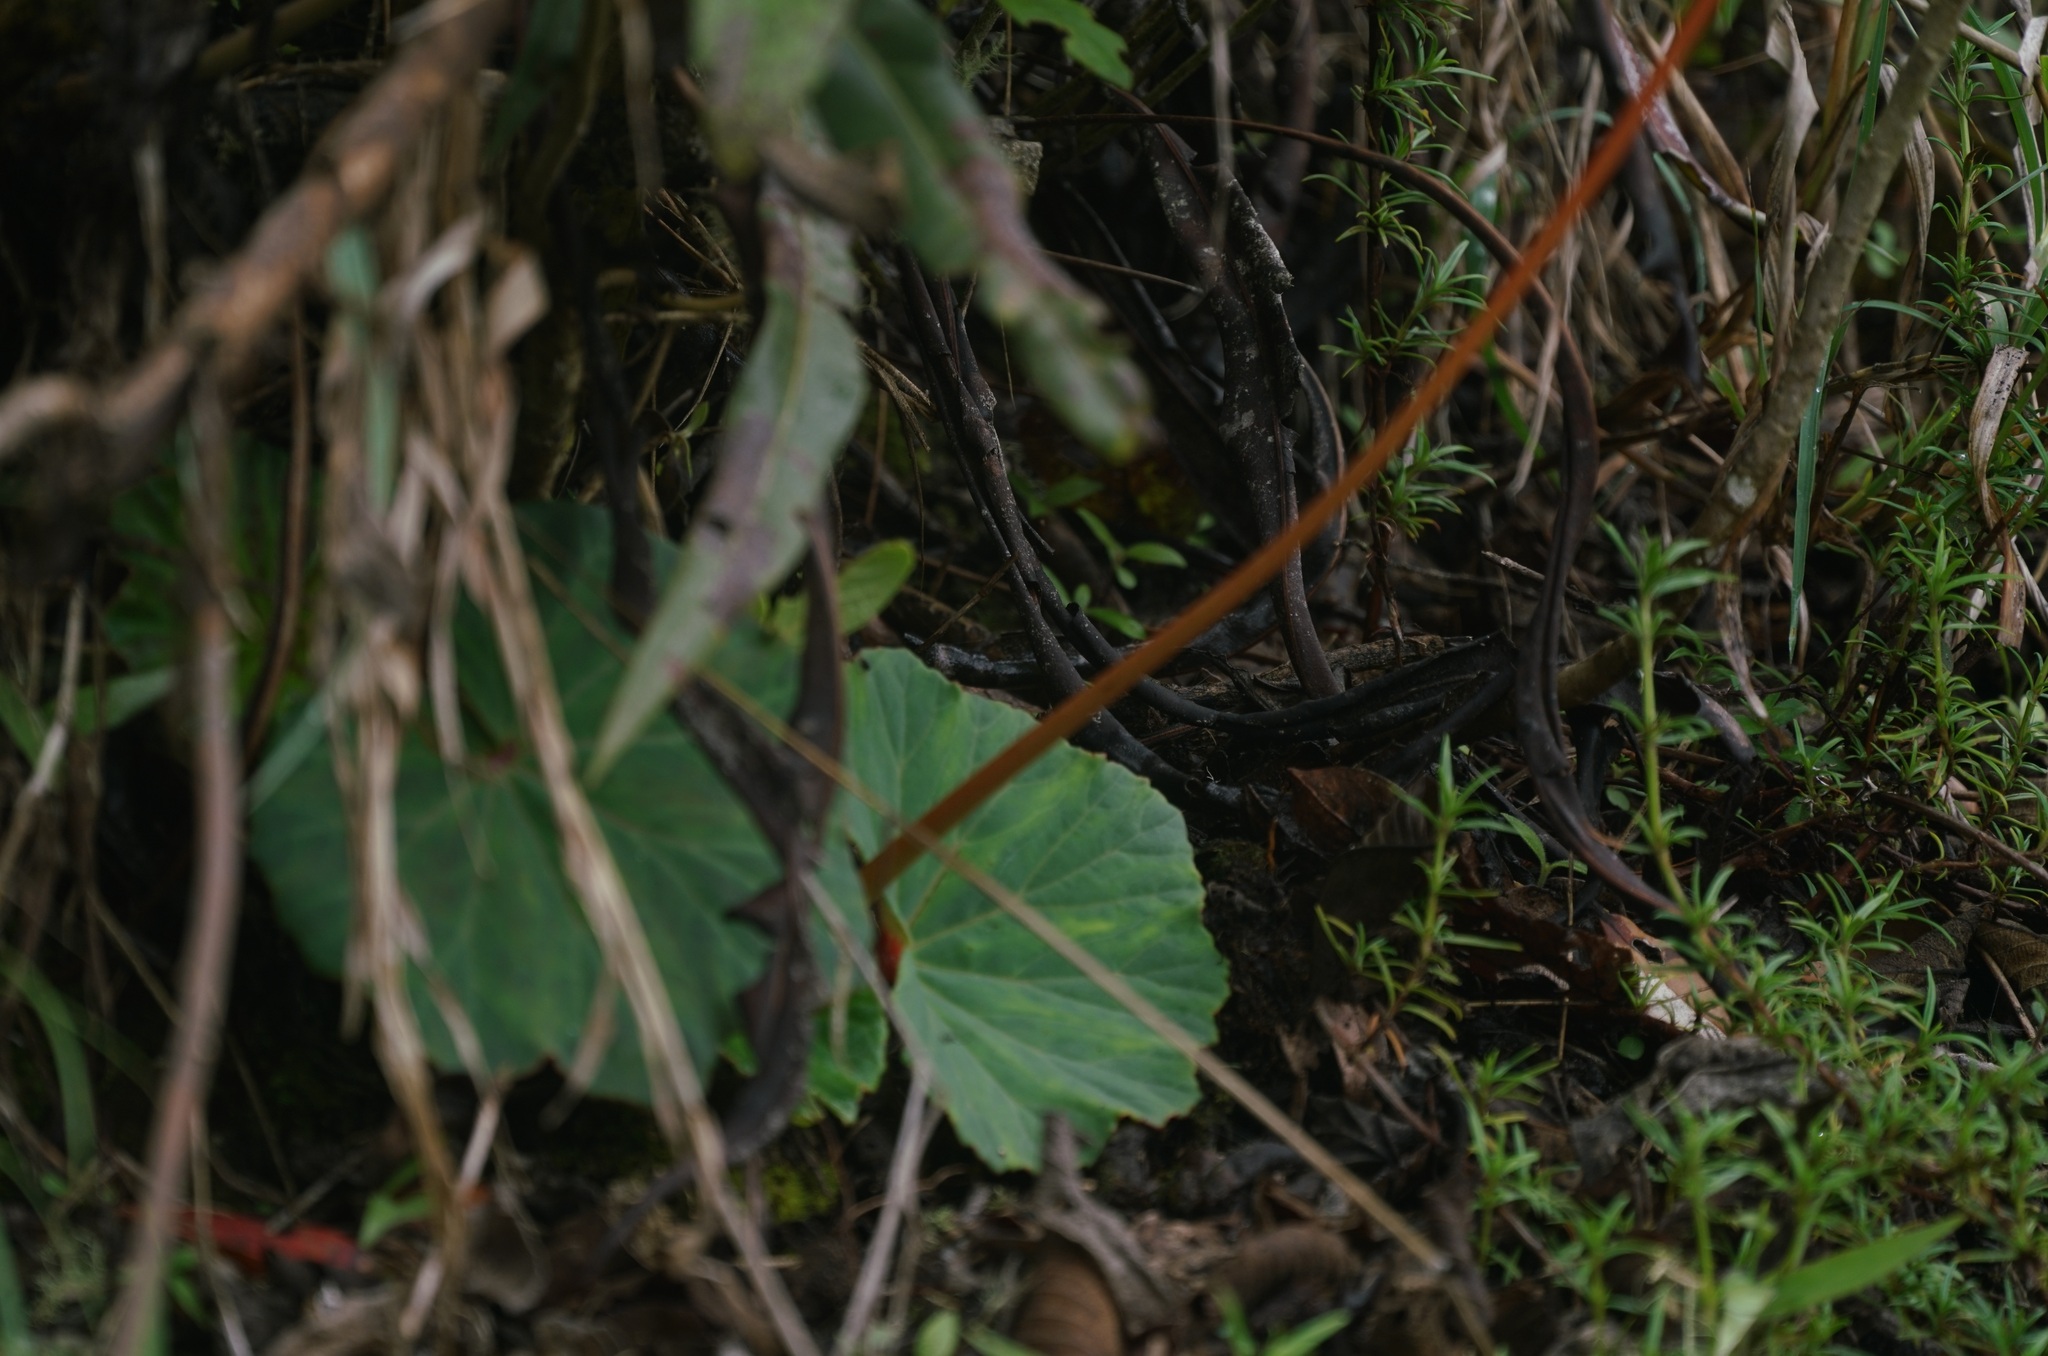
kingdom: Plantae
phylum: Tracheophyta
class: Magnoliopsida
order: Cucurbitales
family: Begoniaceae
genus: Begonia
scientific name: Begonia veitchii
